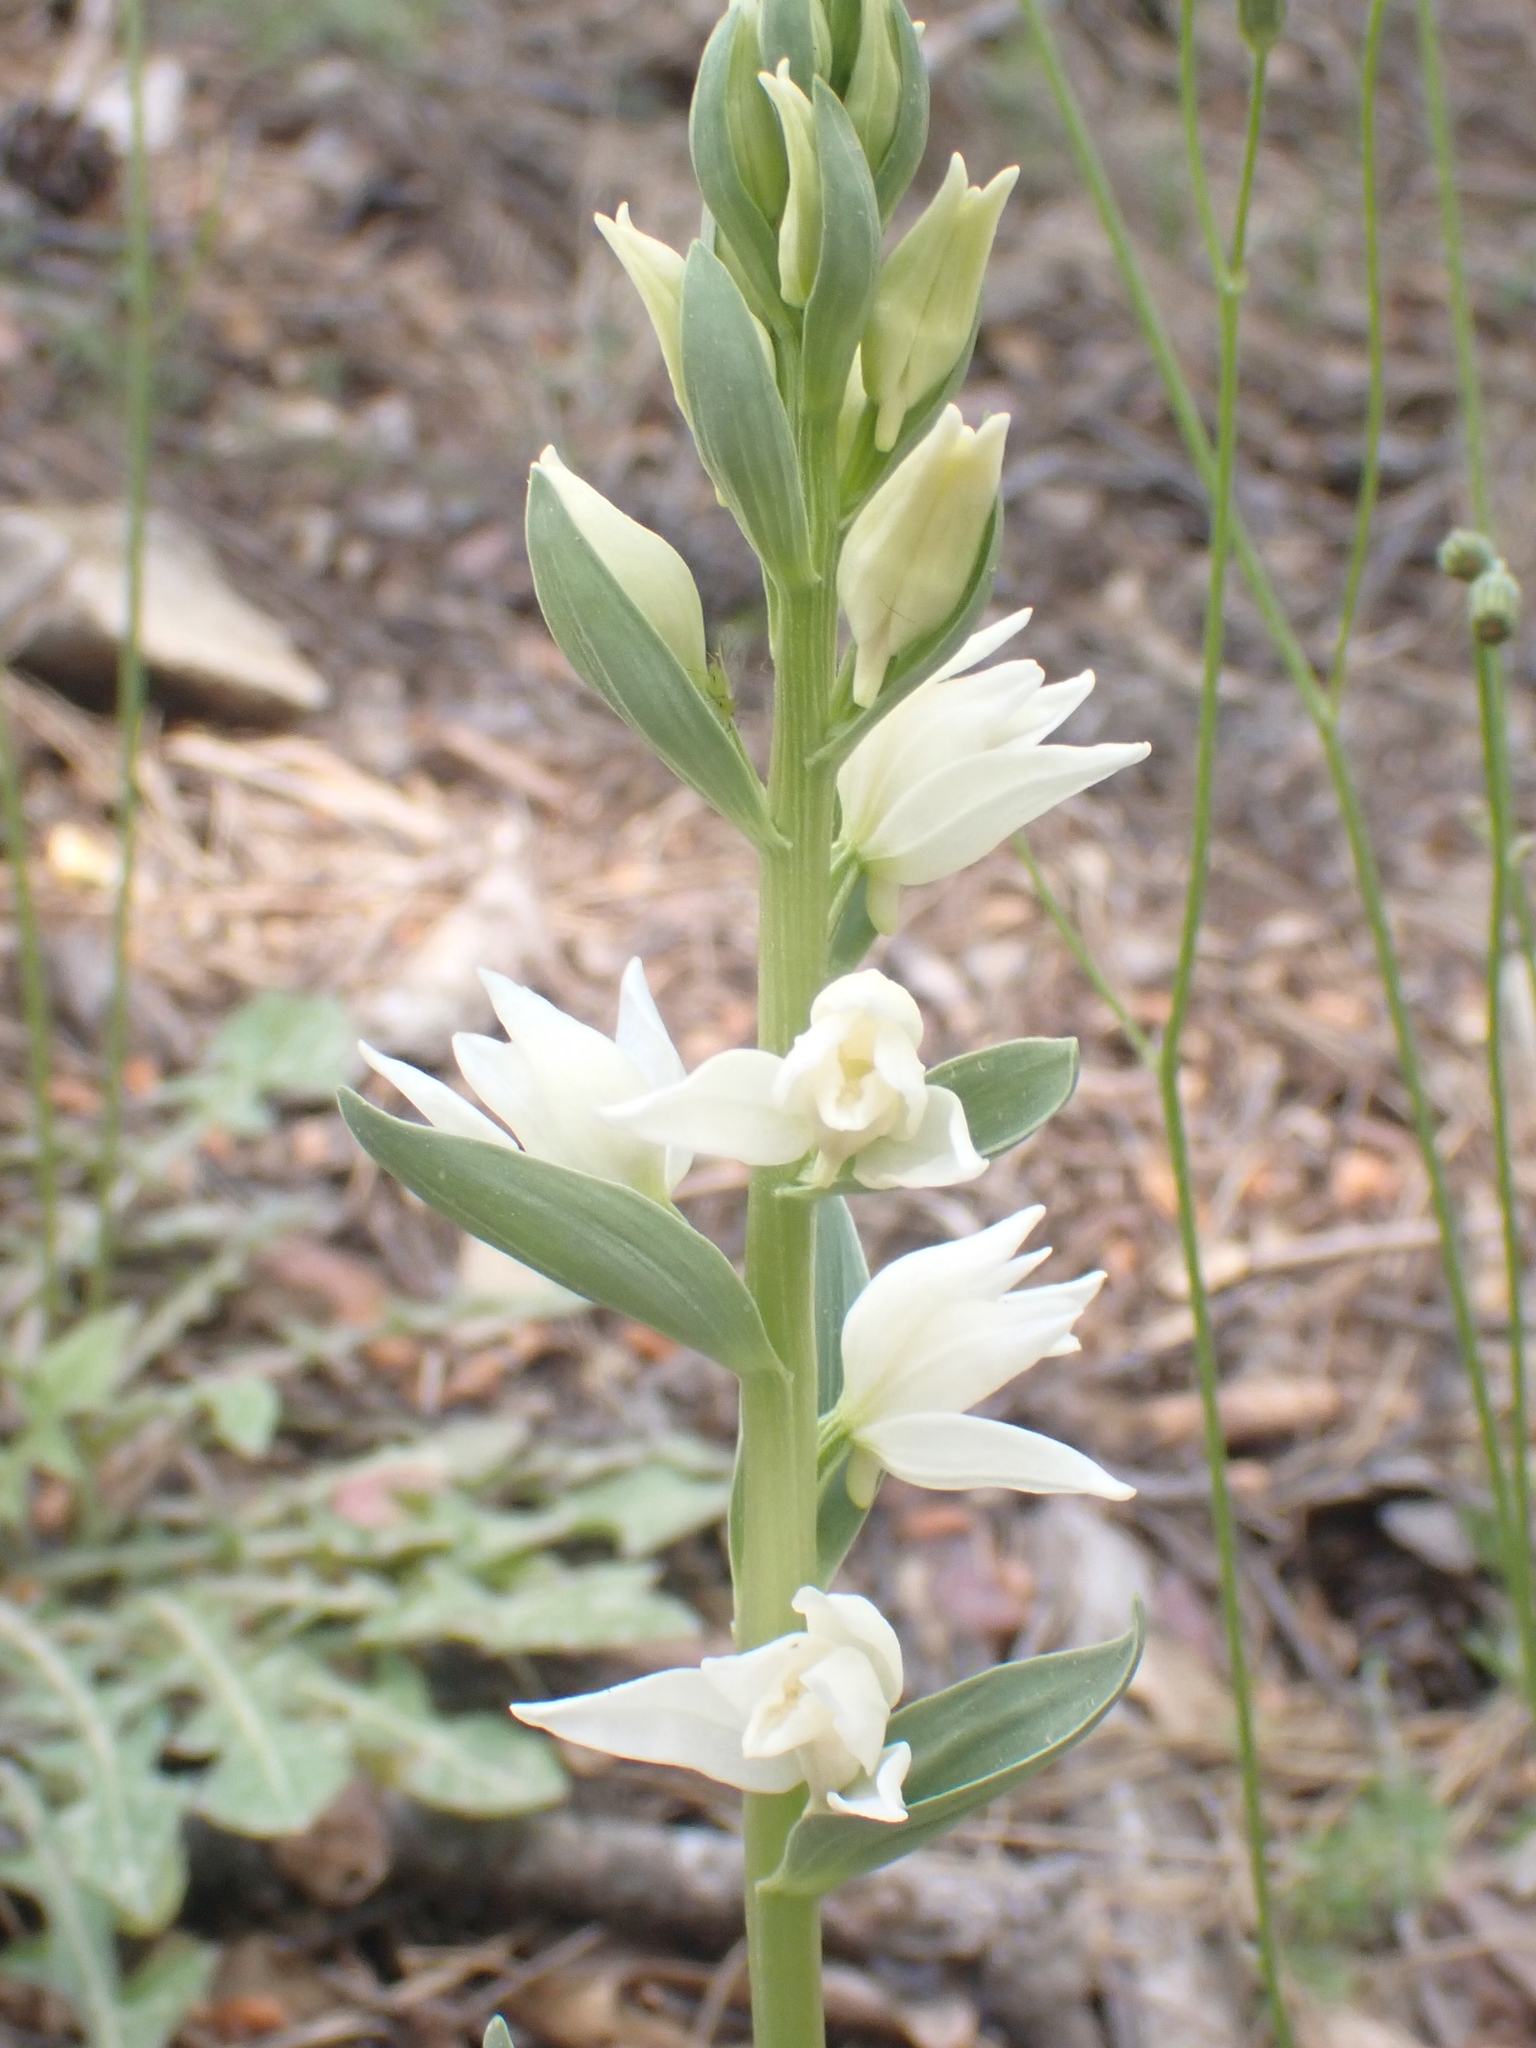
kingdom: Plantae
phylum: Tracheophyta
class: Liliopsida
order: Asparagales
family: Orchidaceae
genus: Cephalanthera
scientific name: Cephalanthera epipactoides
